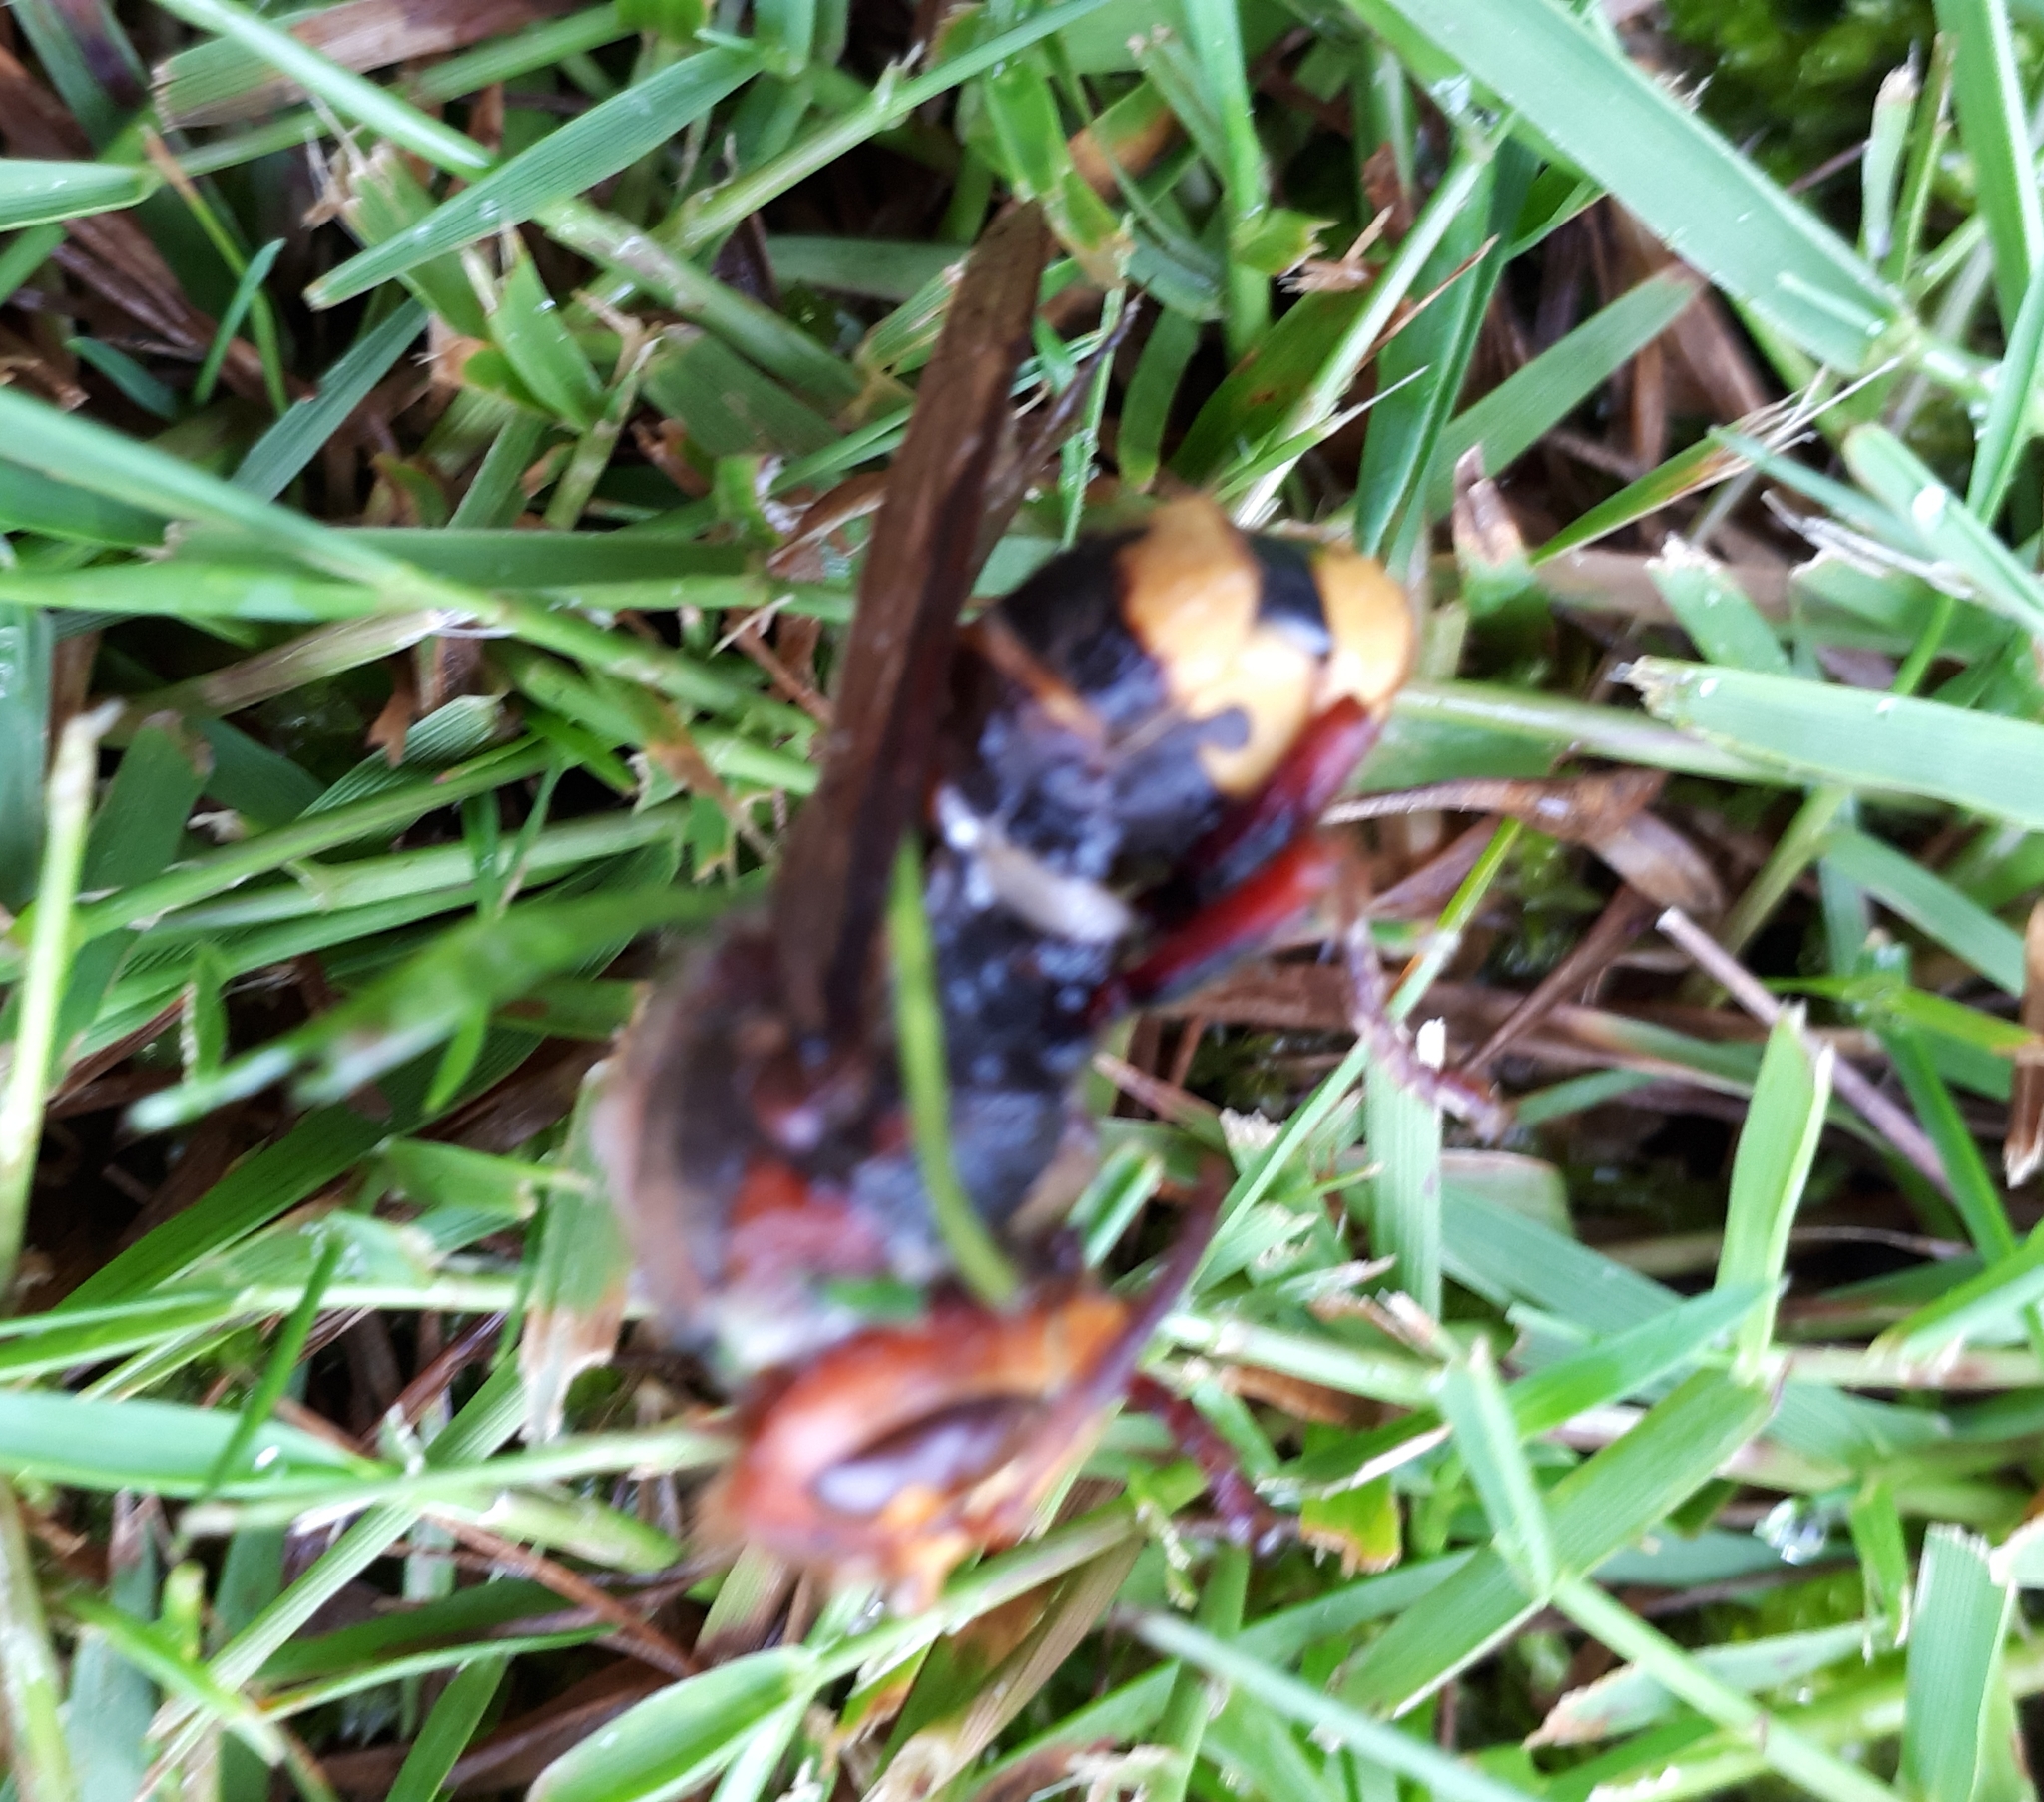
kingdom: Animalia
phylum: Arthropoda
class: Insecta
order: Hymenoptera
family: Vespidae
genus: Vespa
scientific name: Vespa crabro
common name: Hornet
